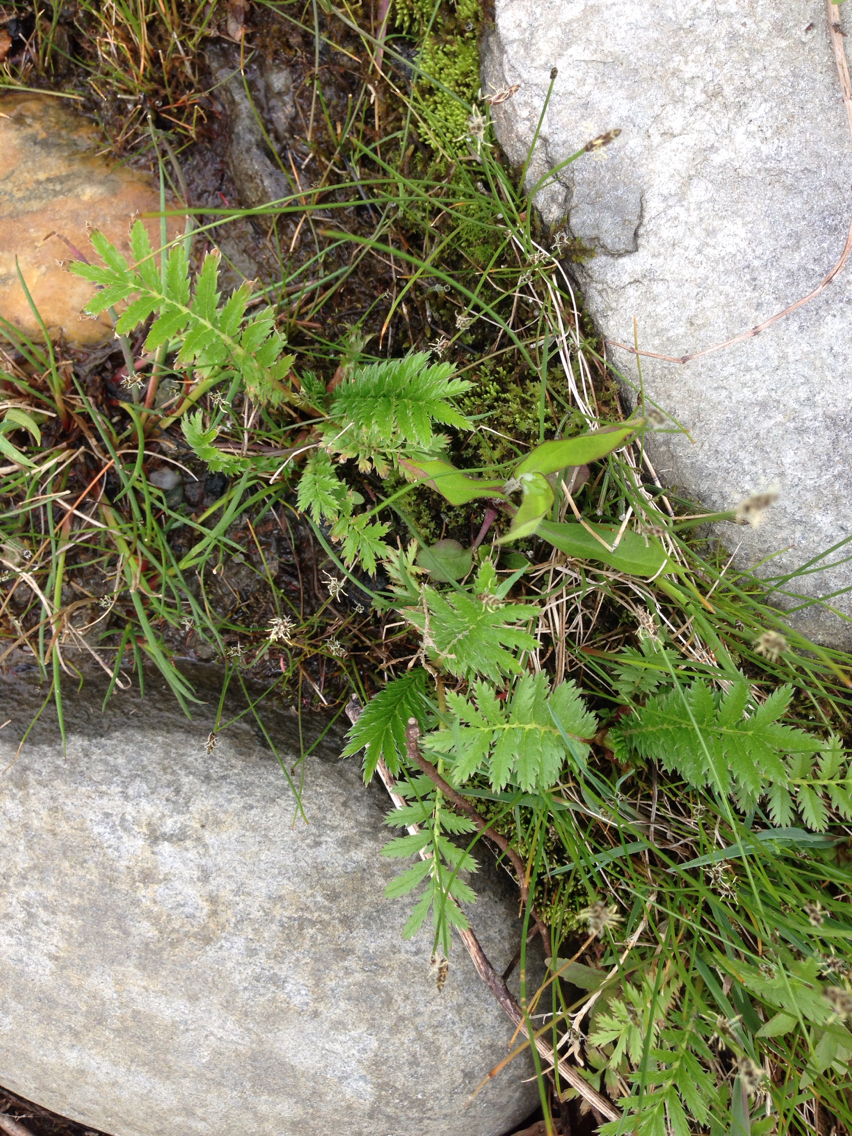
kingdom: Plantae
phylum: Tracheophyta
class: Magnoliopsida
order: Rosales
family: Rosaceae
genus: Argentina
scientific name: Argentina anserina
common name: Common silverweed
